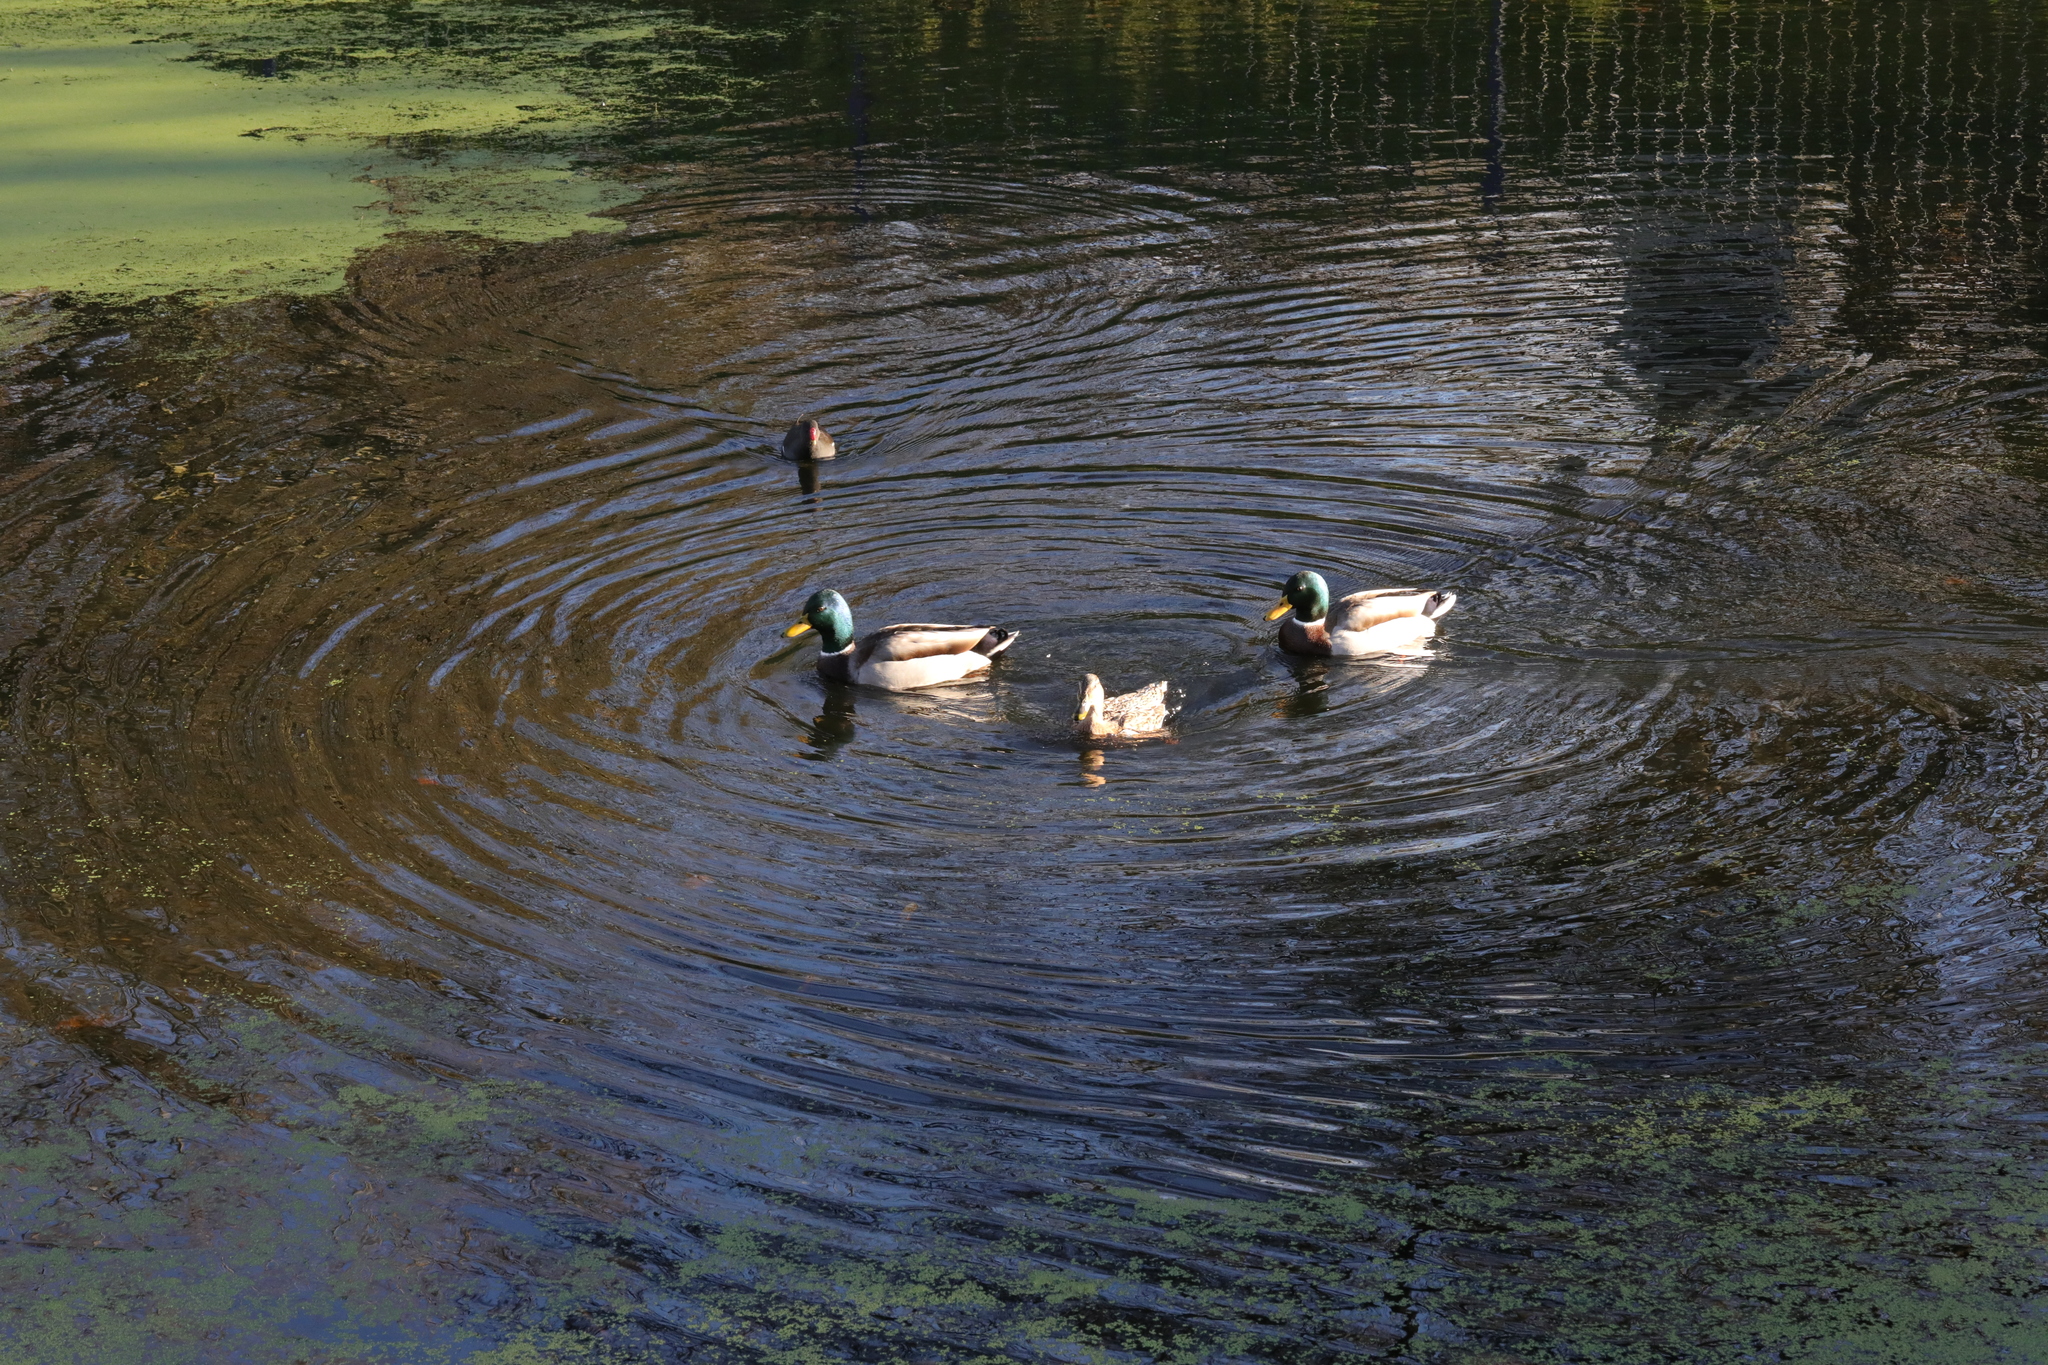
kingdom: Animalia
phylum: Chordata
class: Aves
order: Anseriformes
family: Anatidae
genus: Anas
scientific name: Anas platyrhynchos
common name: Mallard
